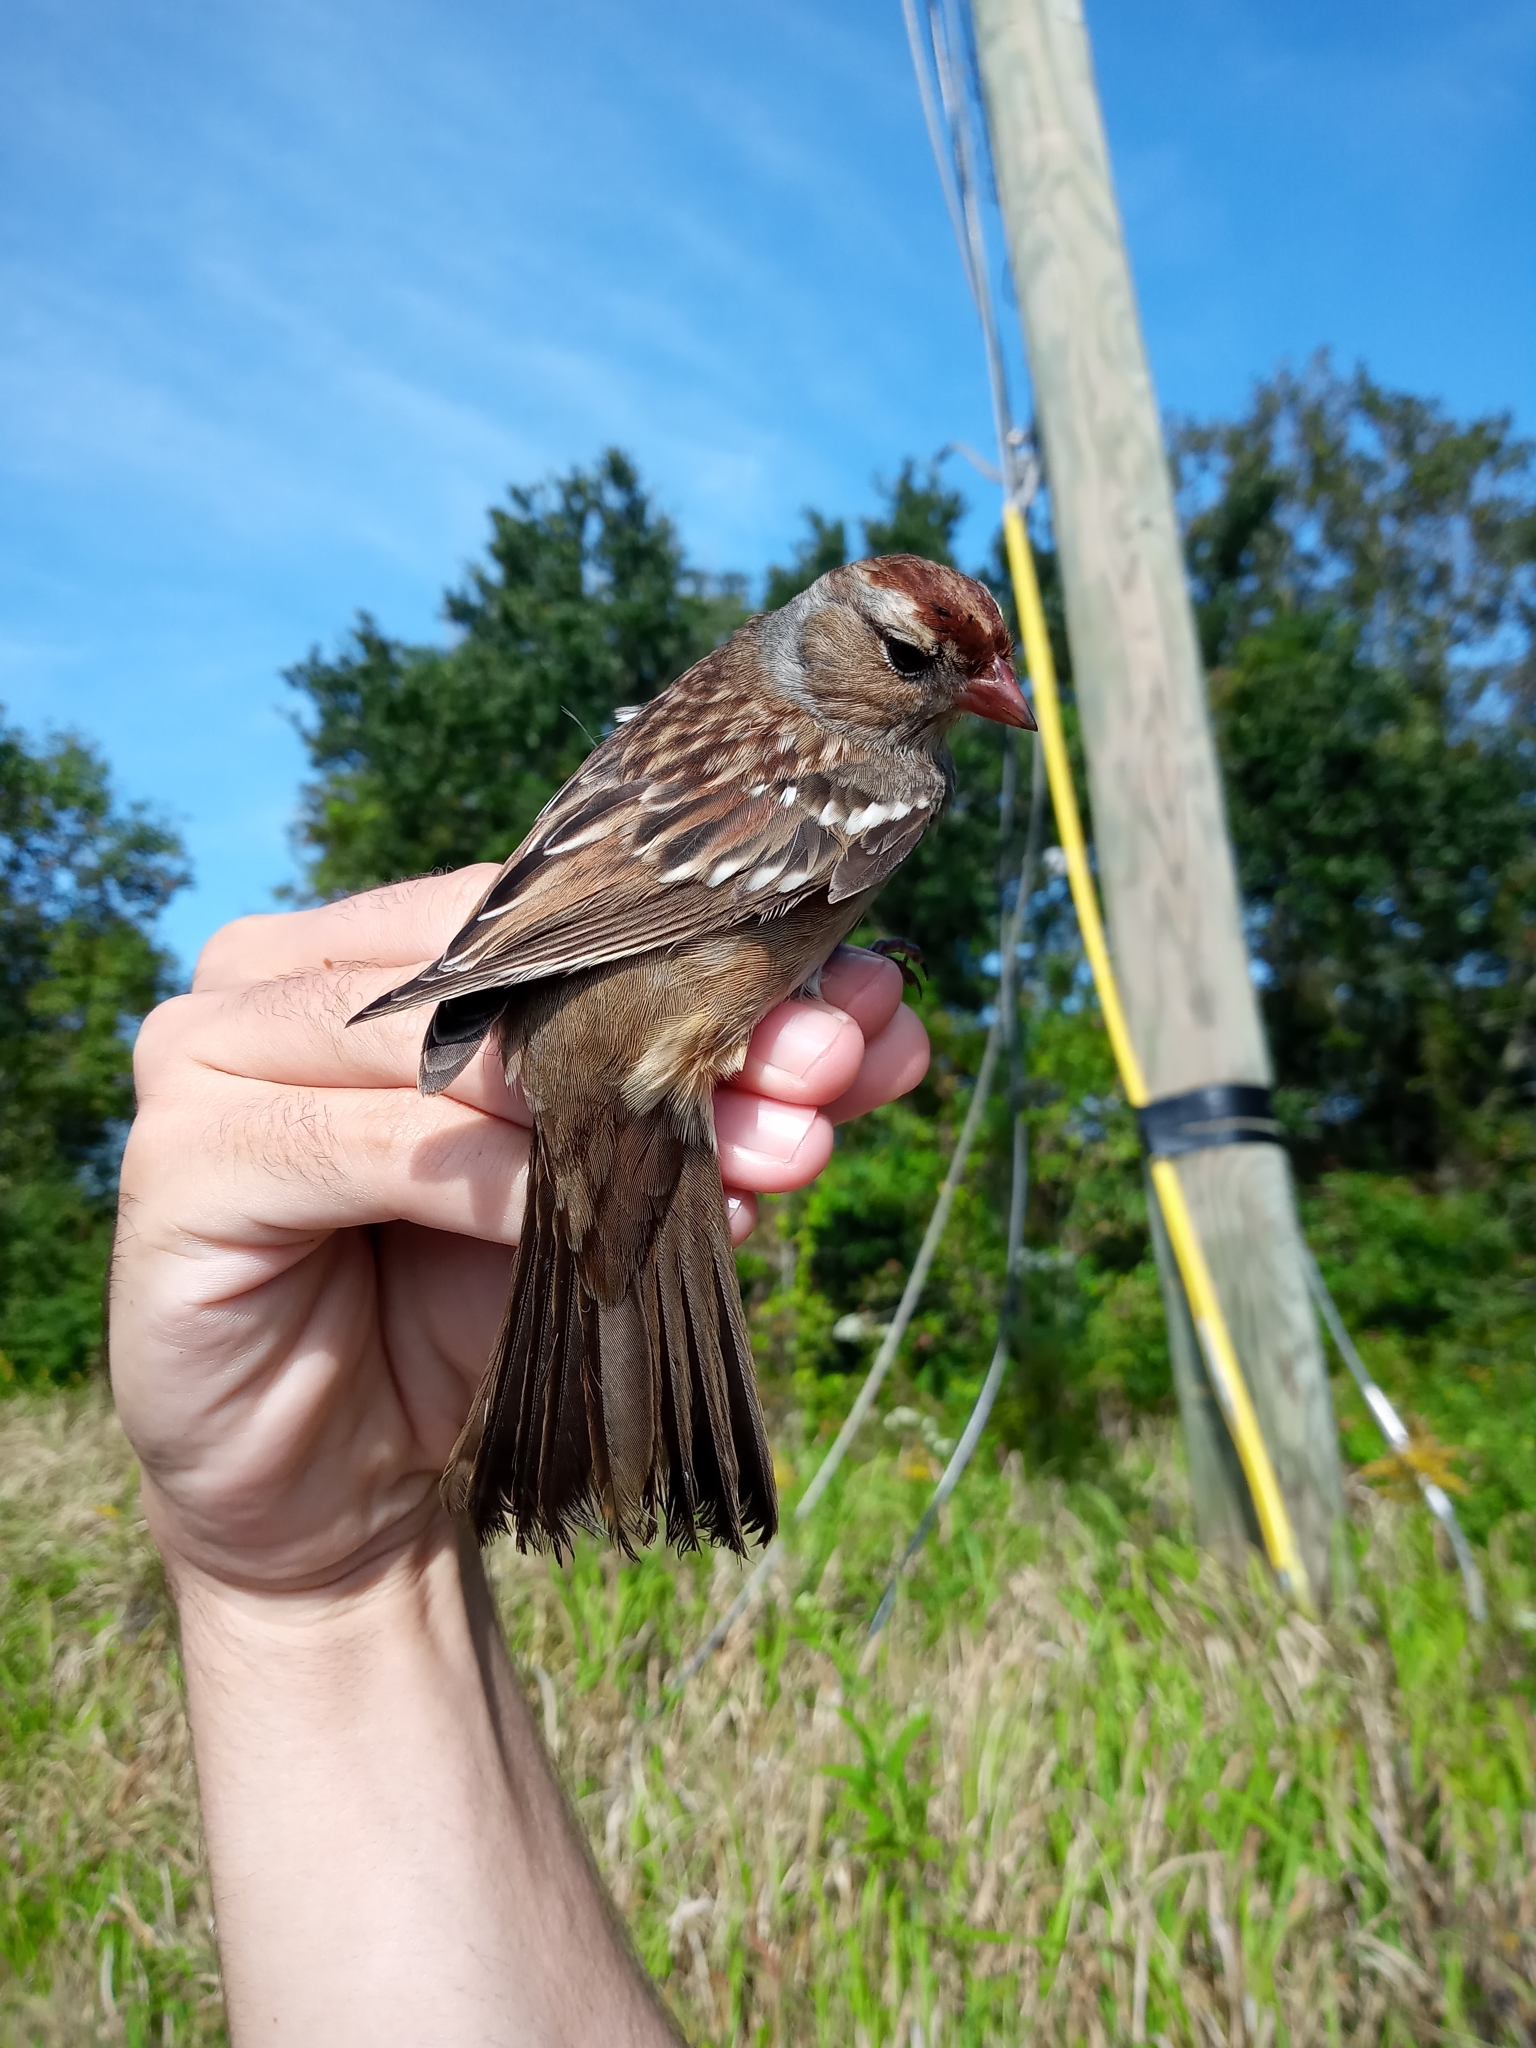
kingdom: Animalia
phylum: Chordata
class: Aves
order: Passeriformes
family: Passerellidae
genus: Zonotrichia
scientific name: Zonotrichia leucophrys
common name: White-crowned sparrow
